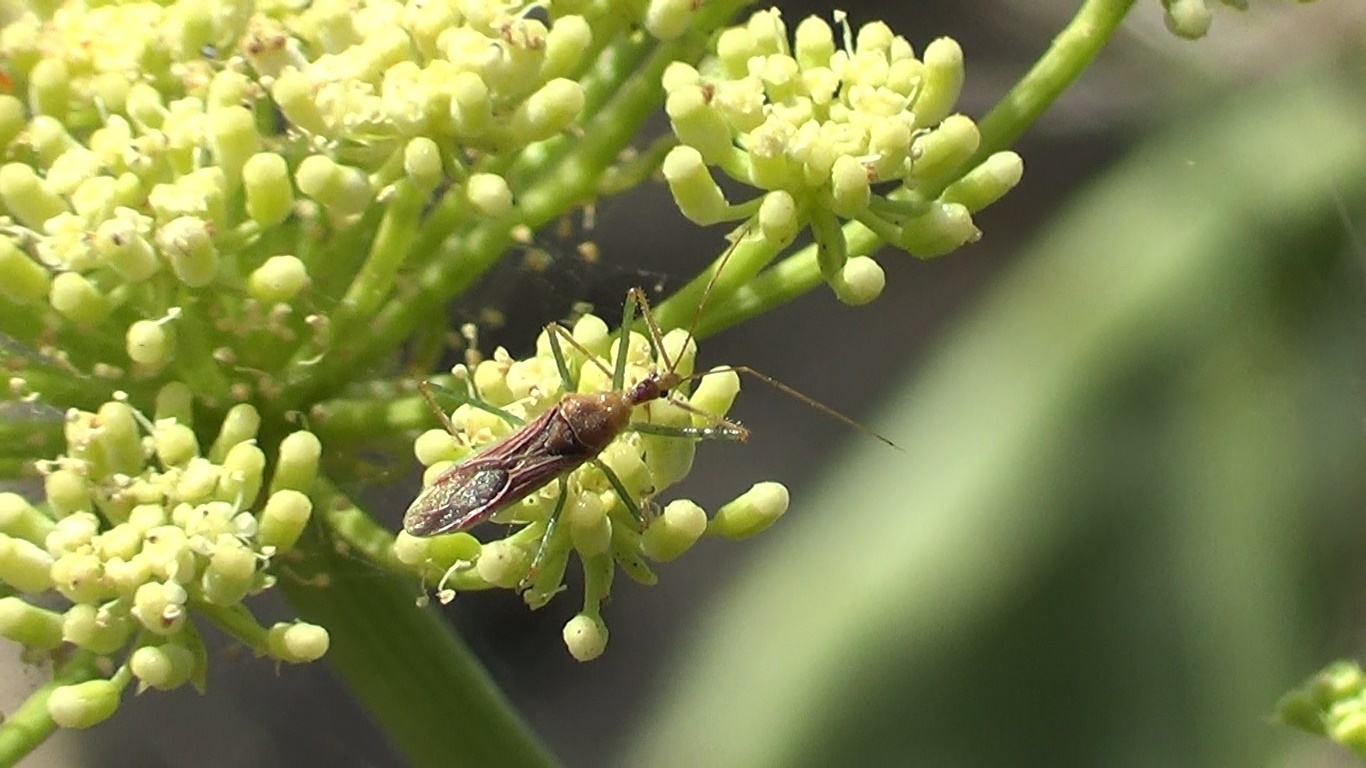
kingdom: Animalia
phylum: Arthropoda
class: Insecta
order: Hemiptera
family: Reduviidae
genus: Zelus
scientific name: Zelus renardii
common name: Assassin bug
